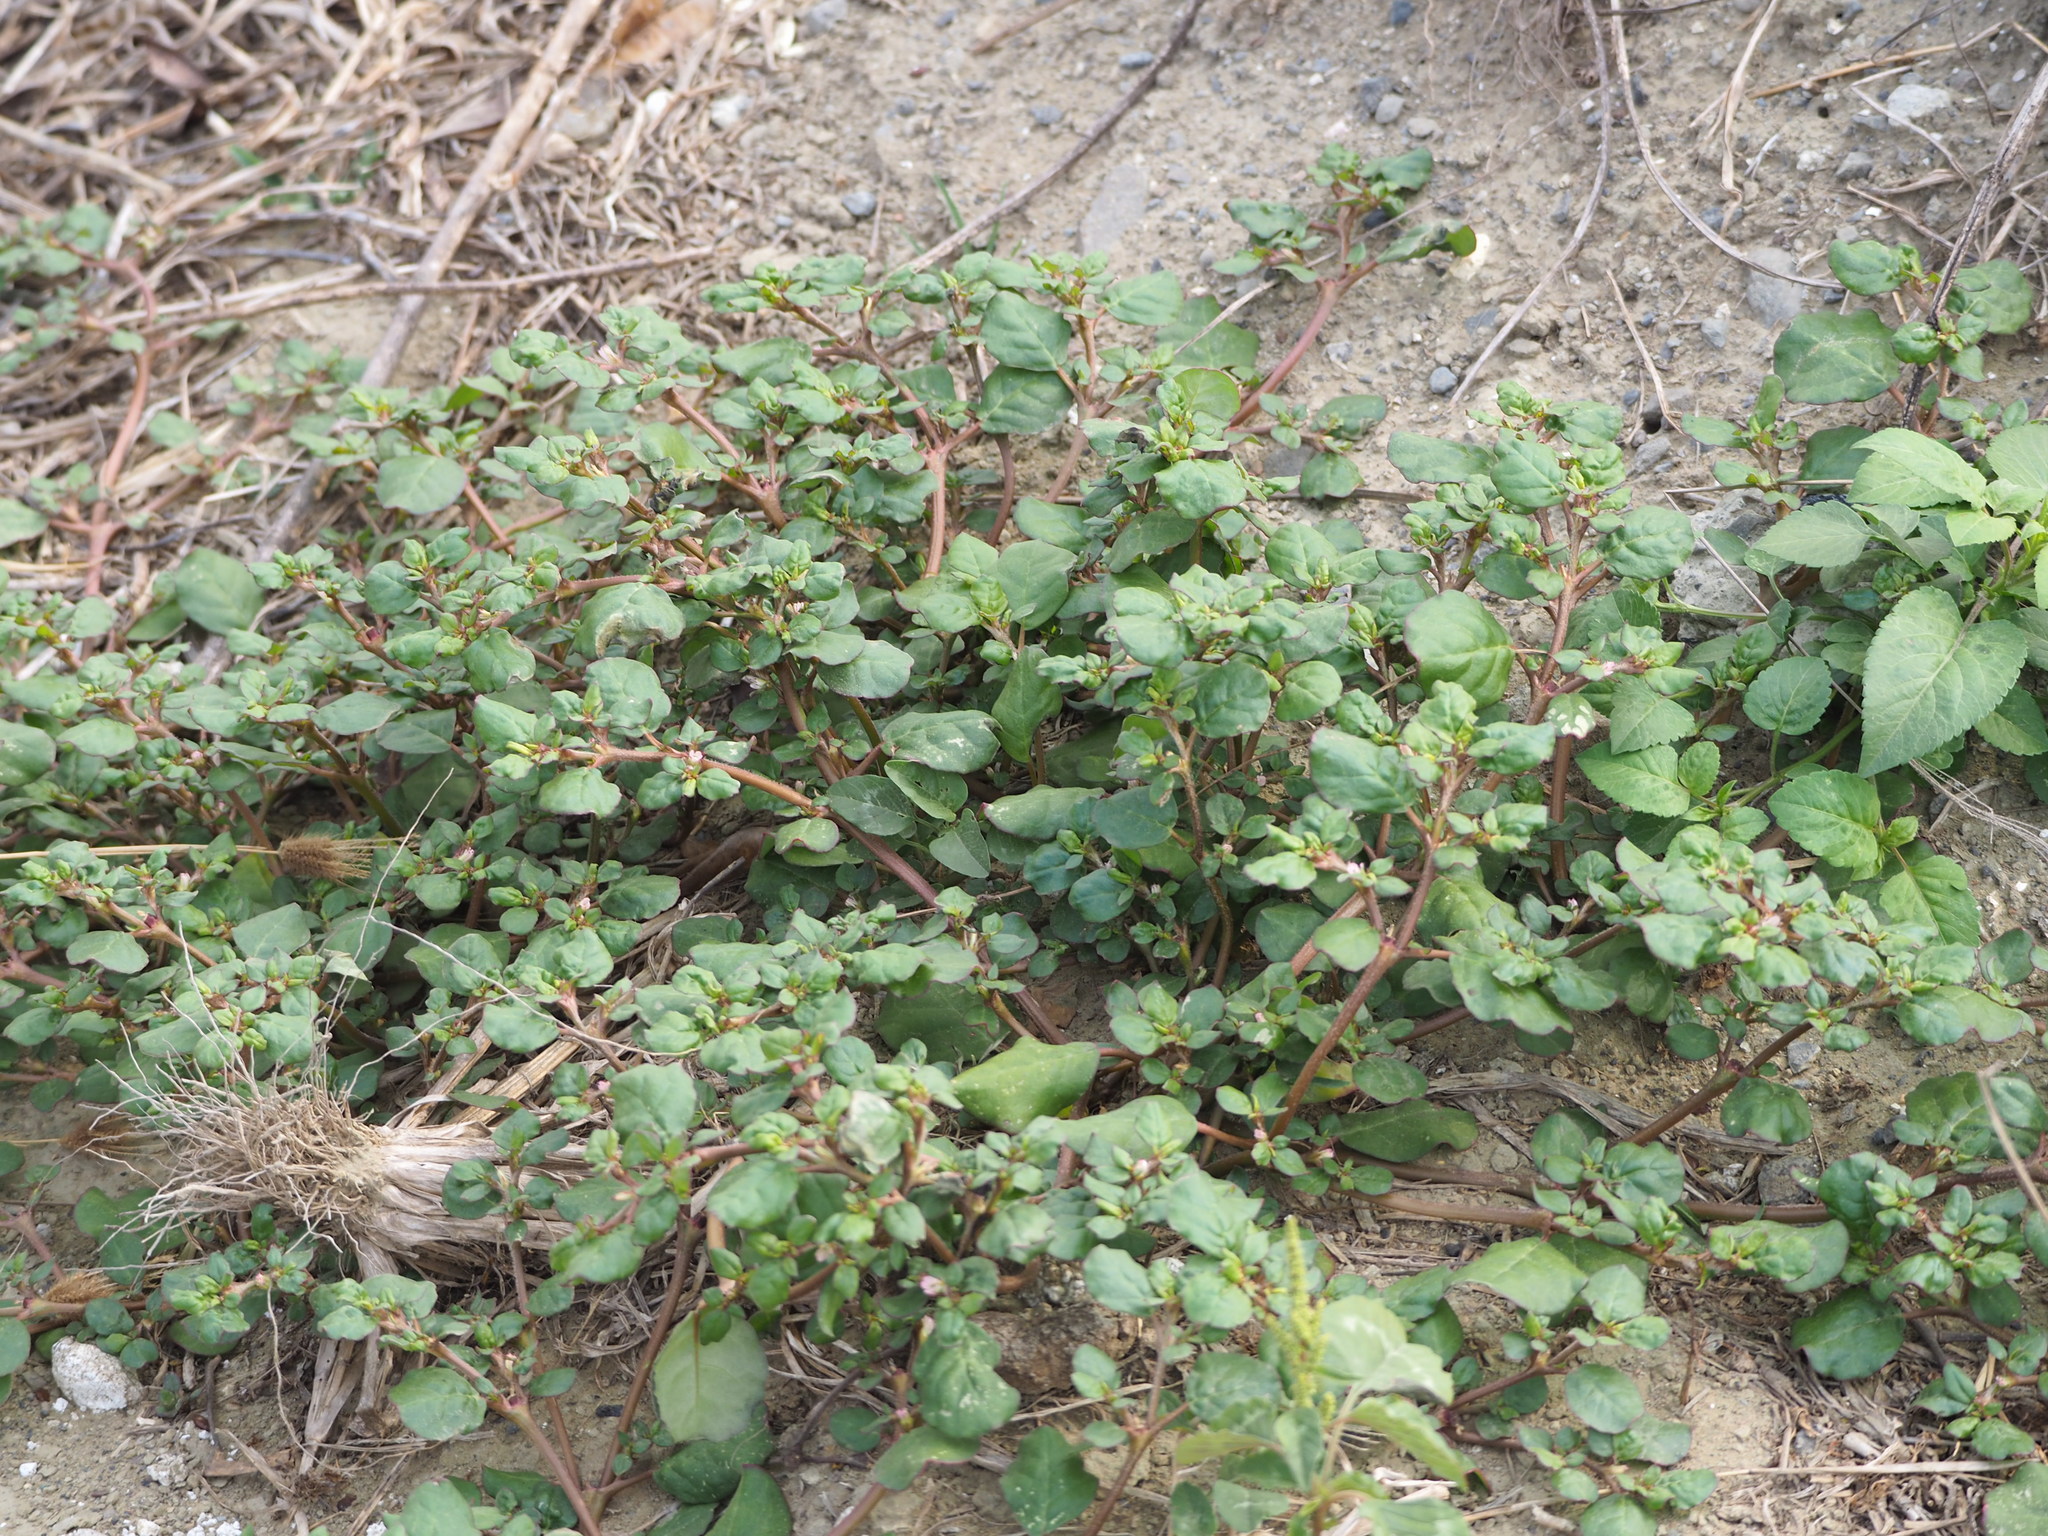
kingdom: Plantae
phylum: Tracheophyta
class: Magnoliopsida
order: Caryophyllales
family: Aizoaceae
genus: Trianthema
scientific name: Trianthema portulacastrum
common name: Desert horsepurslane
